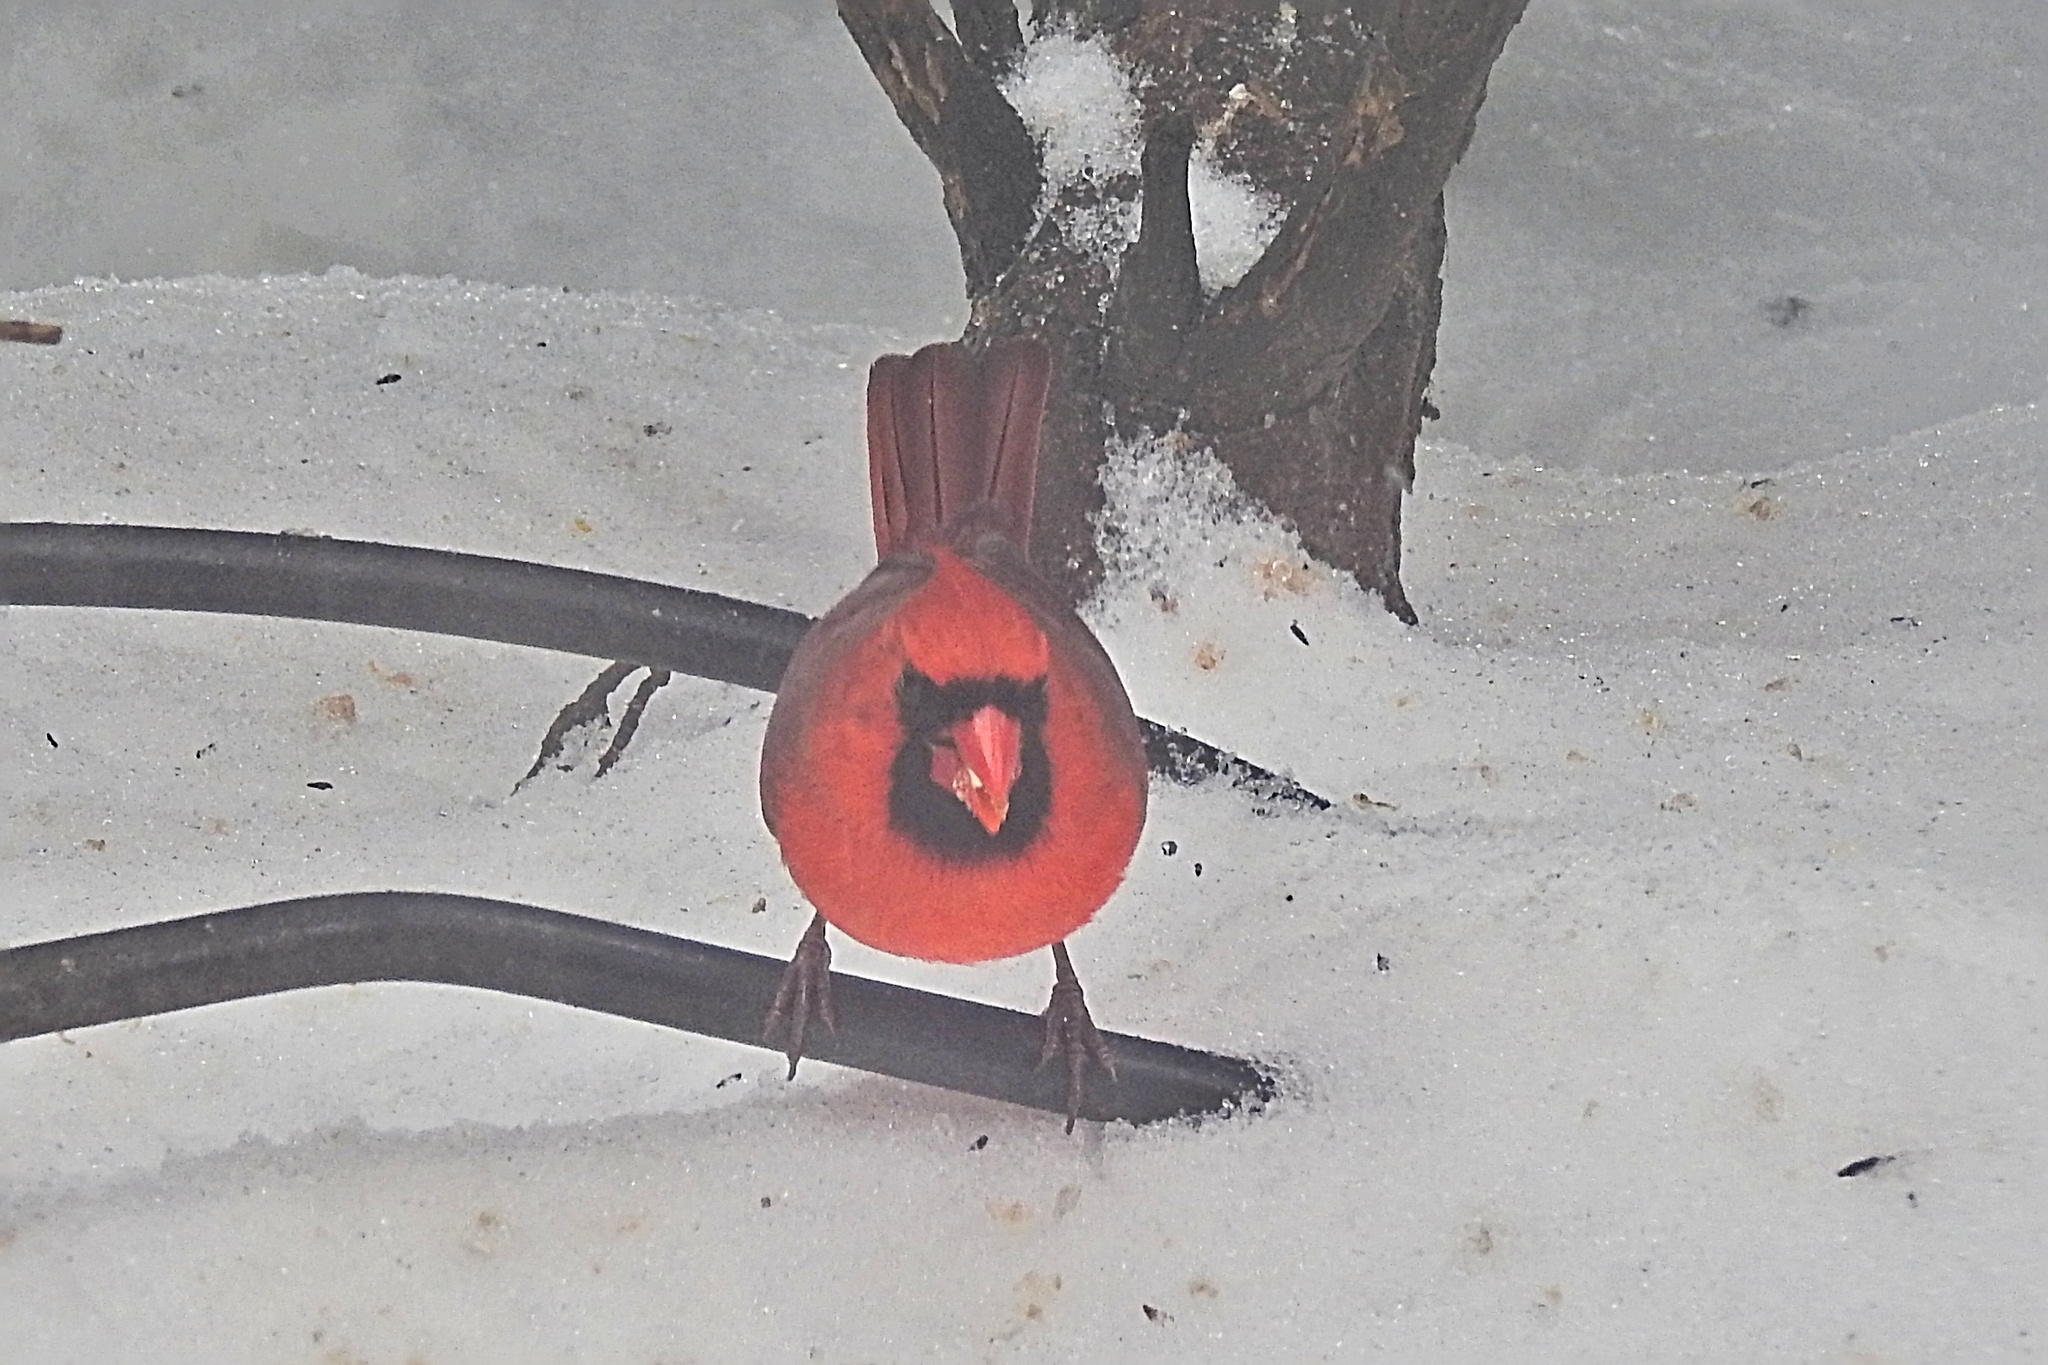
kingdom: Animalia
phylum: Chordata
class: Aves
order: Passeriformes
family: Cardinalidae
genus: Cardinalis
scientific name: Cardinalis cardinalis
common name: Northern cardinal
